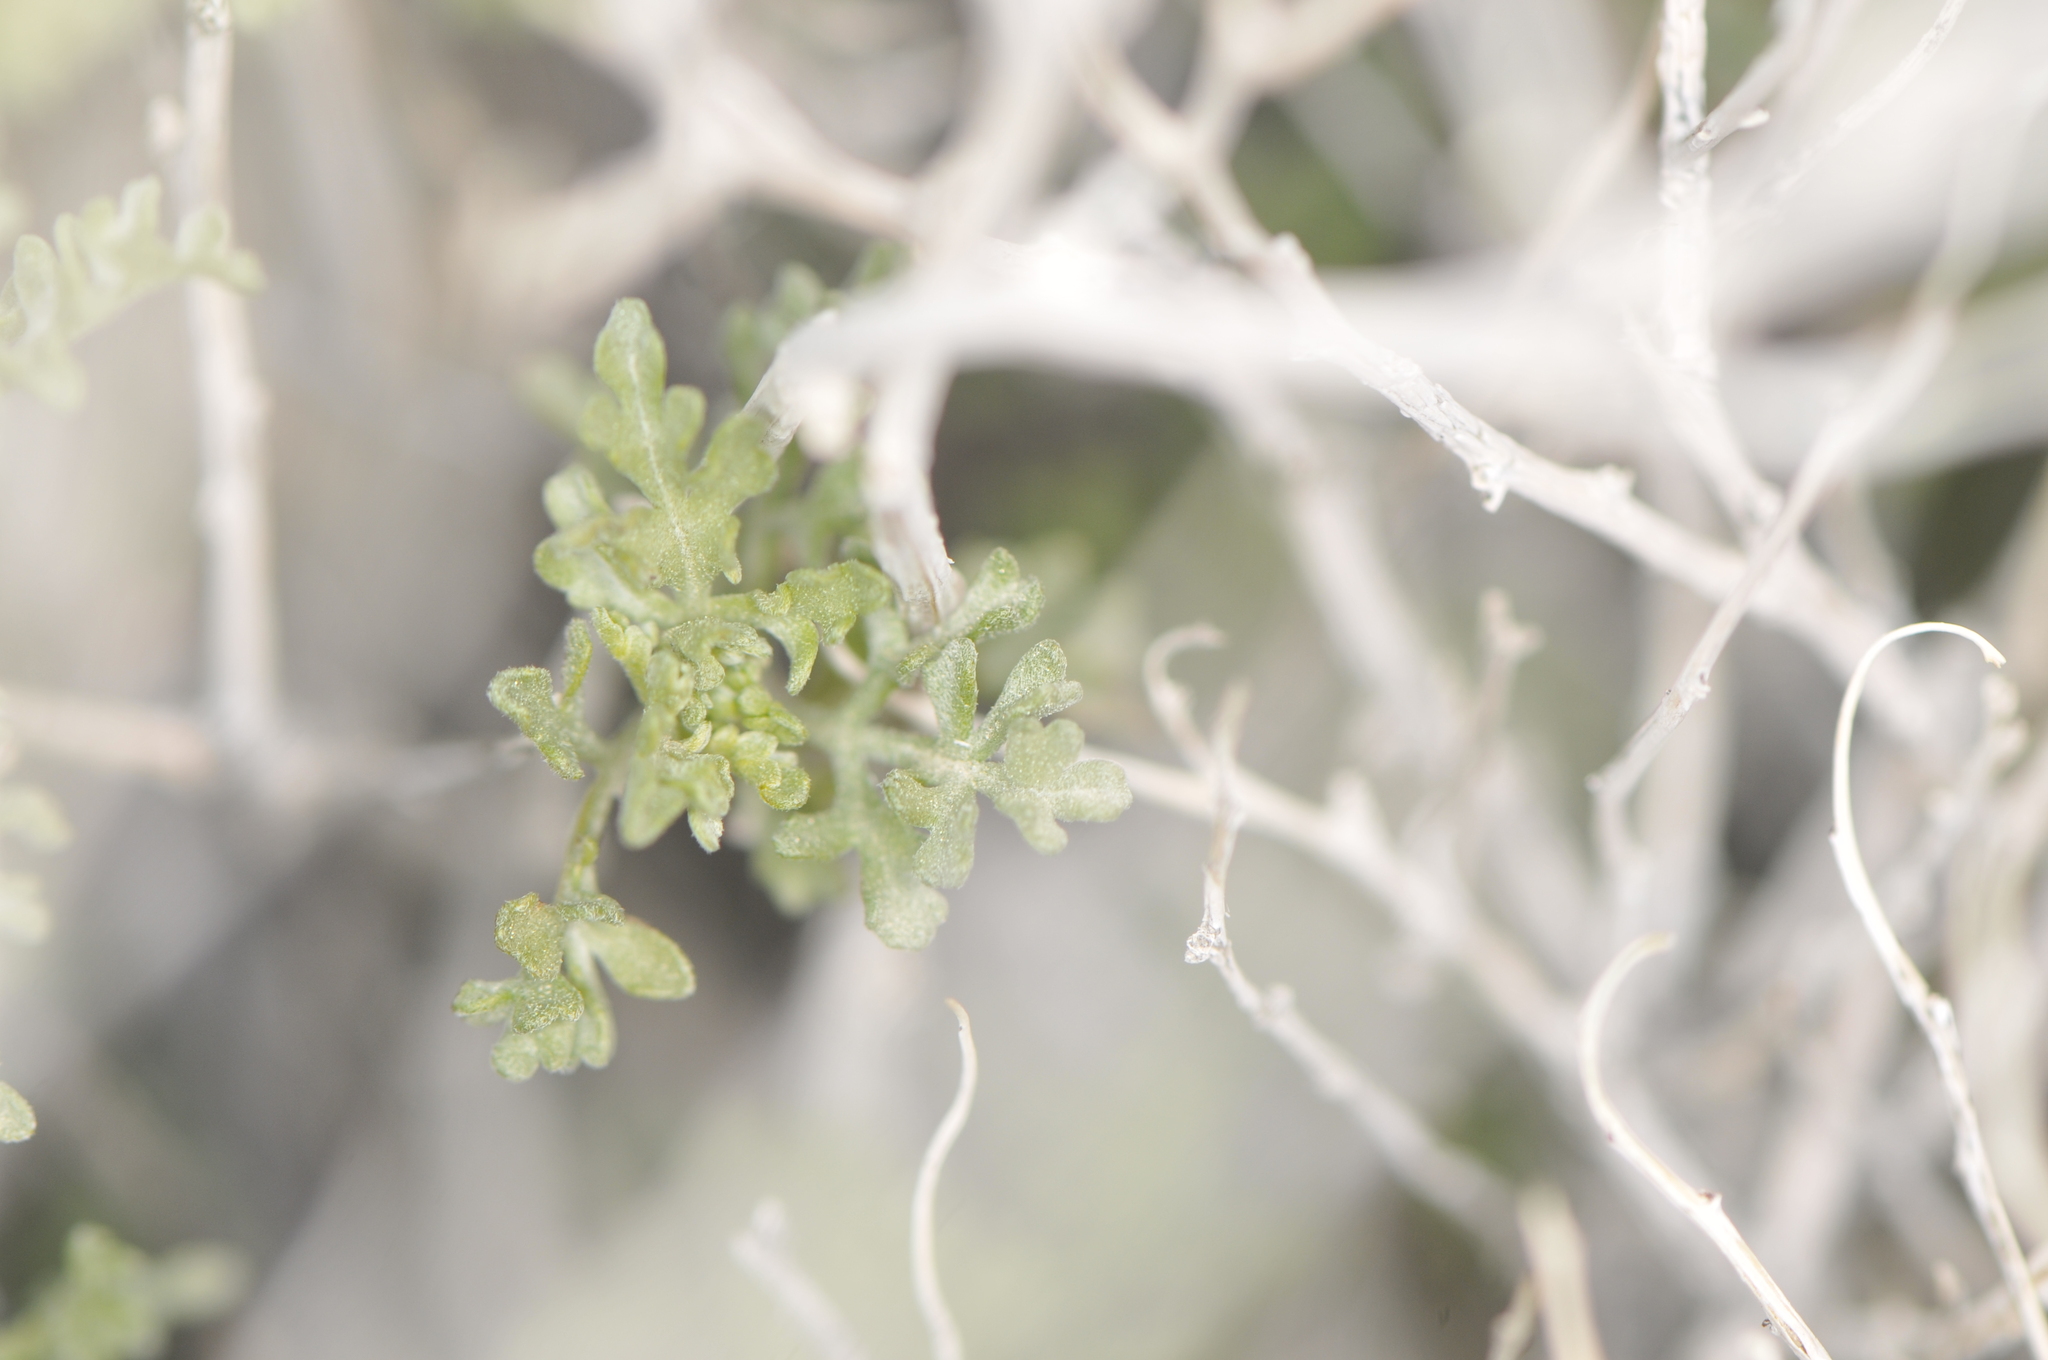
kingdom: Plantae
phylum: Tracheophyta
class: Magnoliopsida
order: Asterales
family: Asteraceae
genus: Ambrosia
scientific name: Ambrosia dumosa
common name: Bur-sage
